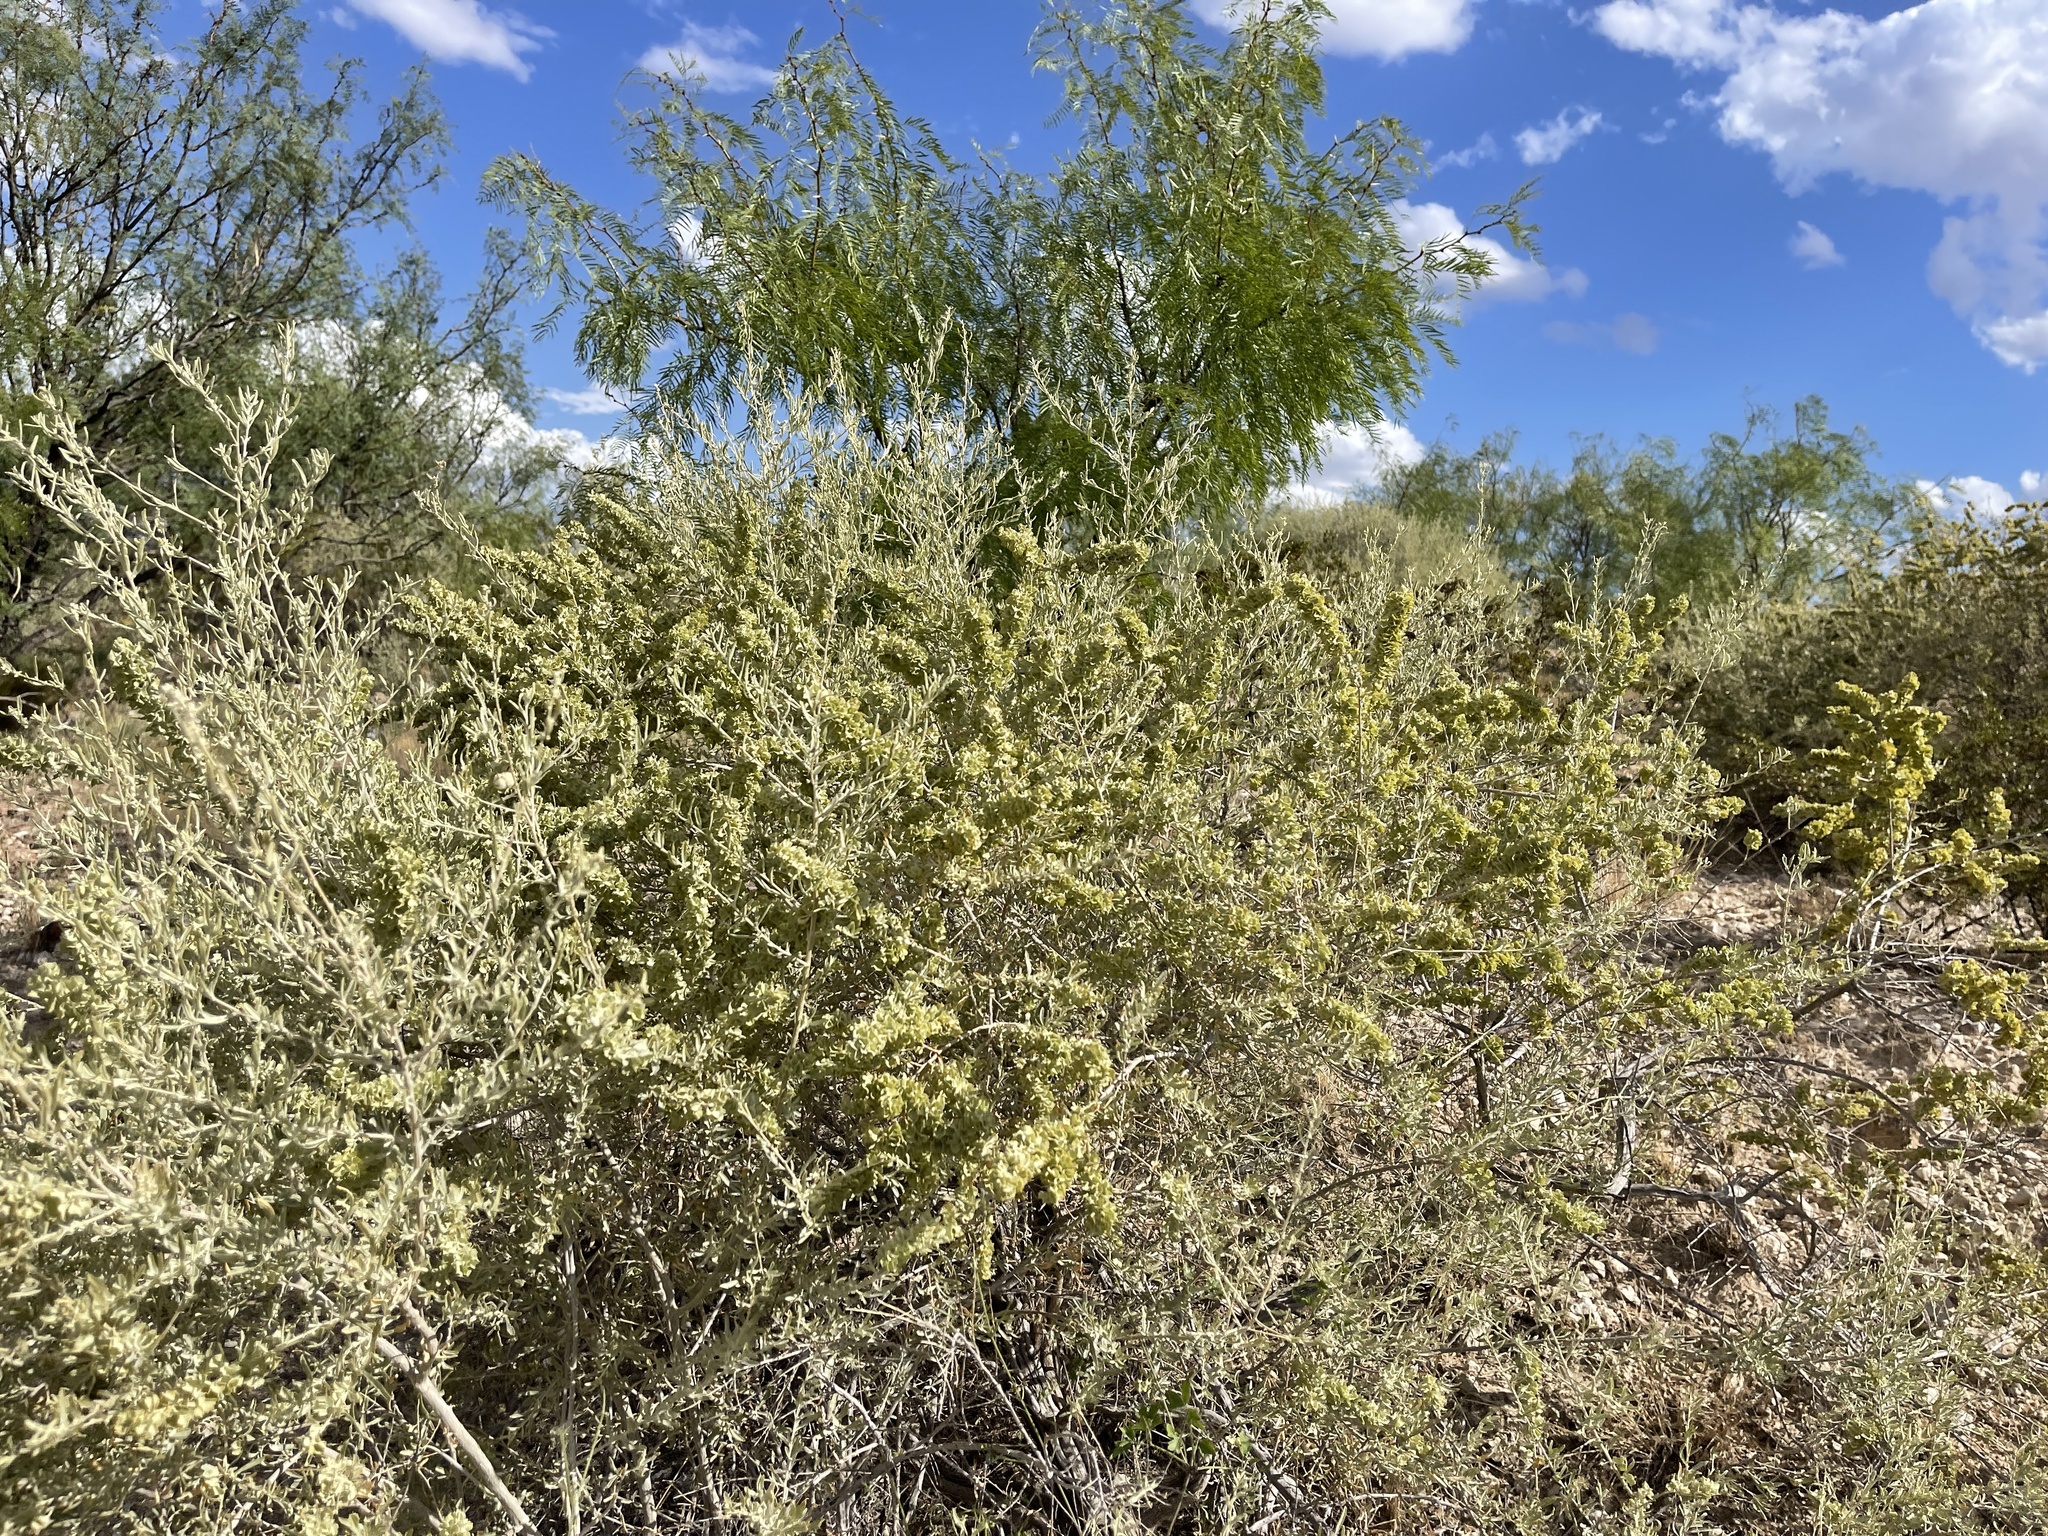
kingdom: Plantae
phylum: Tracheophyta
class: Magnoliopsida
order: Caryophyllales
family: Amaranthaceae
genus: Atriplex
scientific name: Atriplex canescens
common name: Four-wing saltbush
